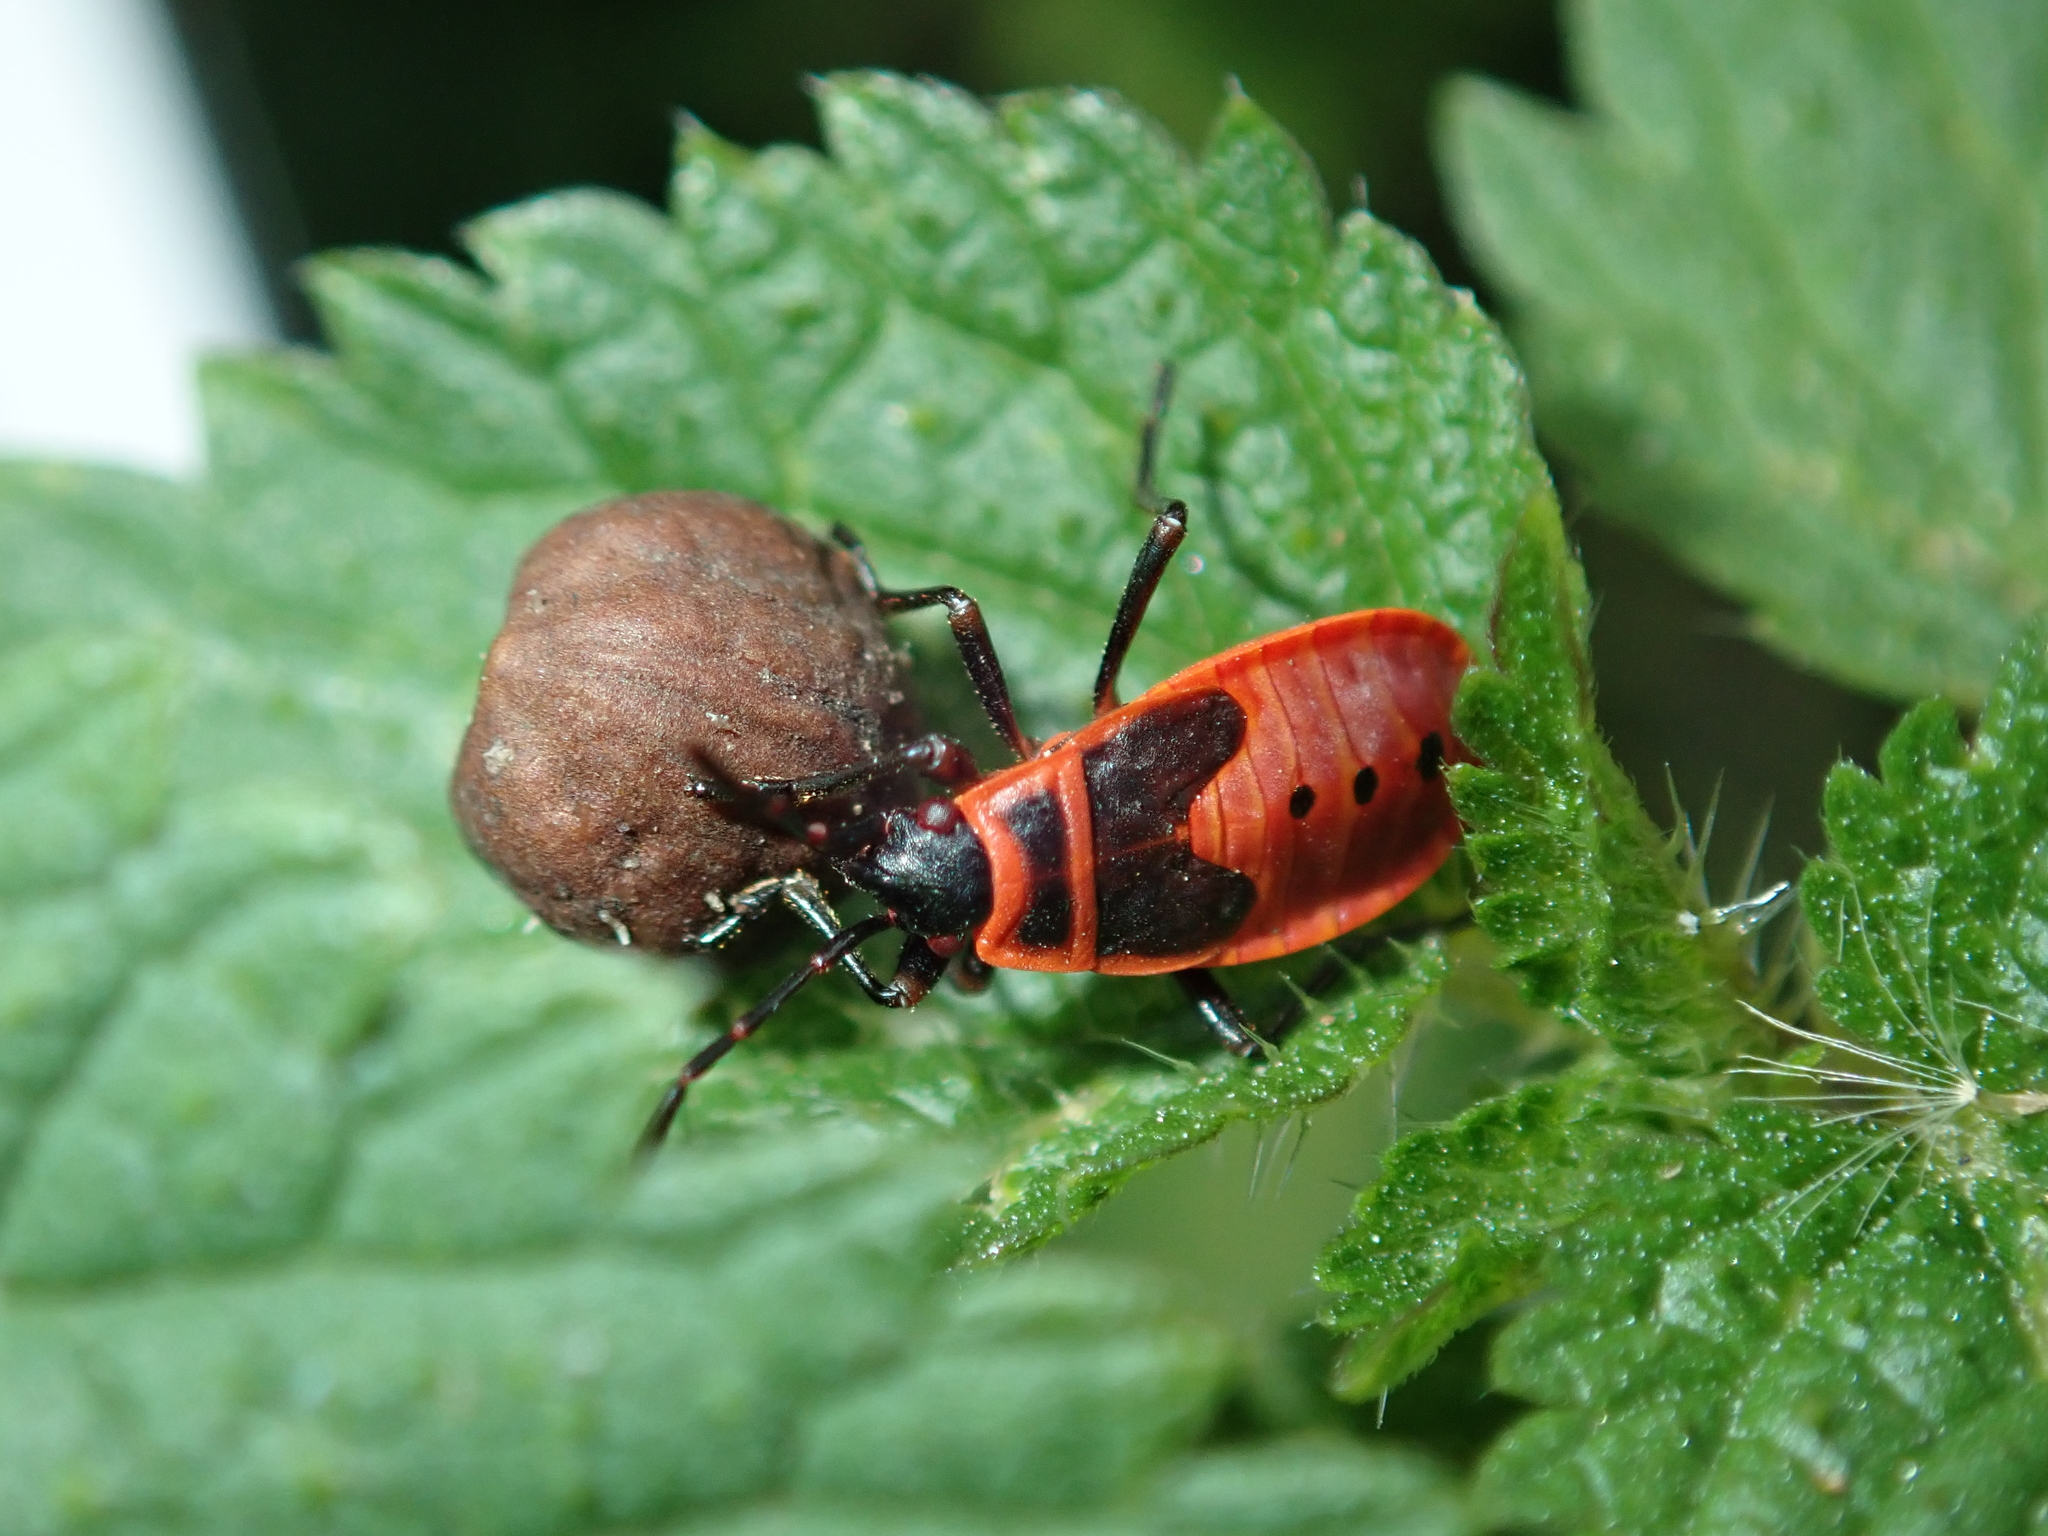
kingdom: Animalia
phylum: Arthropoda
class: Insecta
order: Hemiptera
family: Pyrrhocoridae
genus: Pyrrhocoris
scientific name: Pyrrhocoris apterus
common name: Firebug
